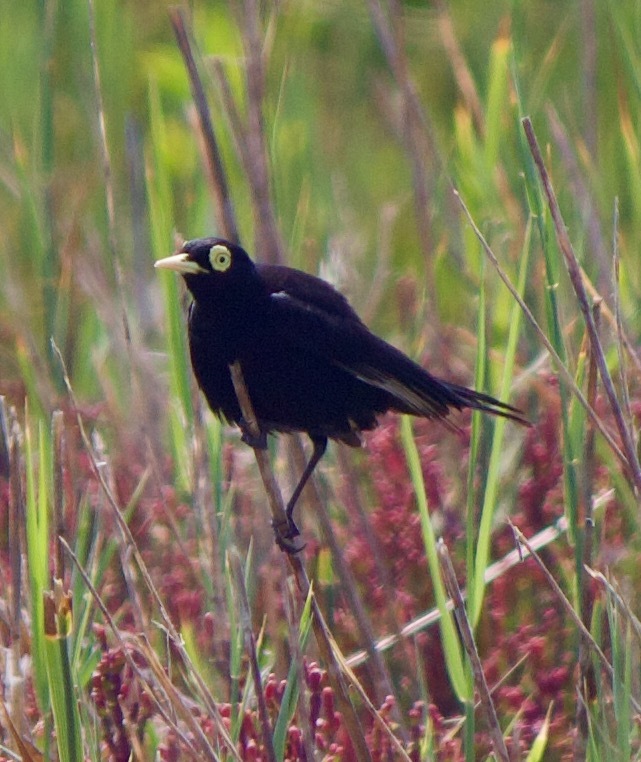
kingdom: Animalia
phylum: Chordata
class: Aves
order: Passeriformes
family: Tyrannidae
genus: Hymenops
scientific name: Hymenops perspicillatus
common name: Spectacled tyrant
